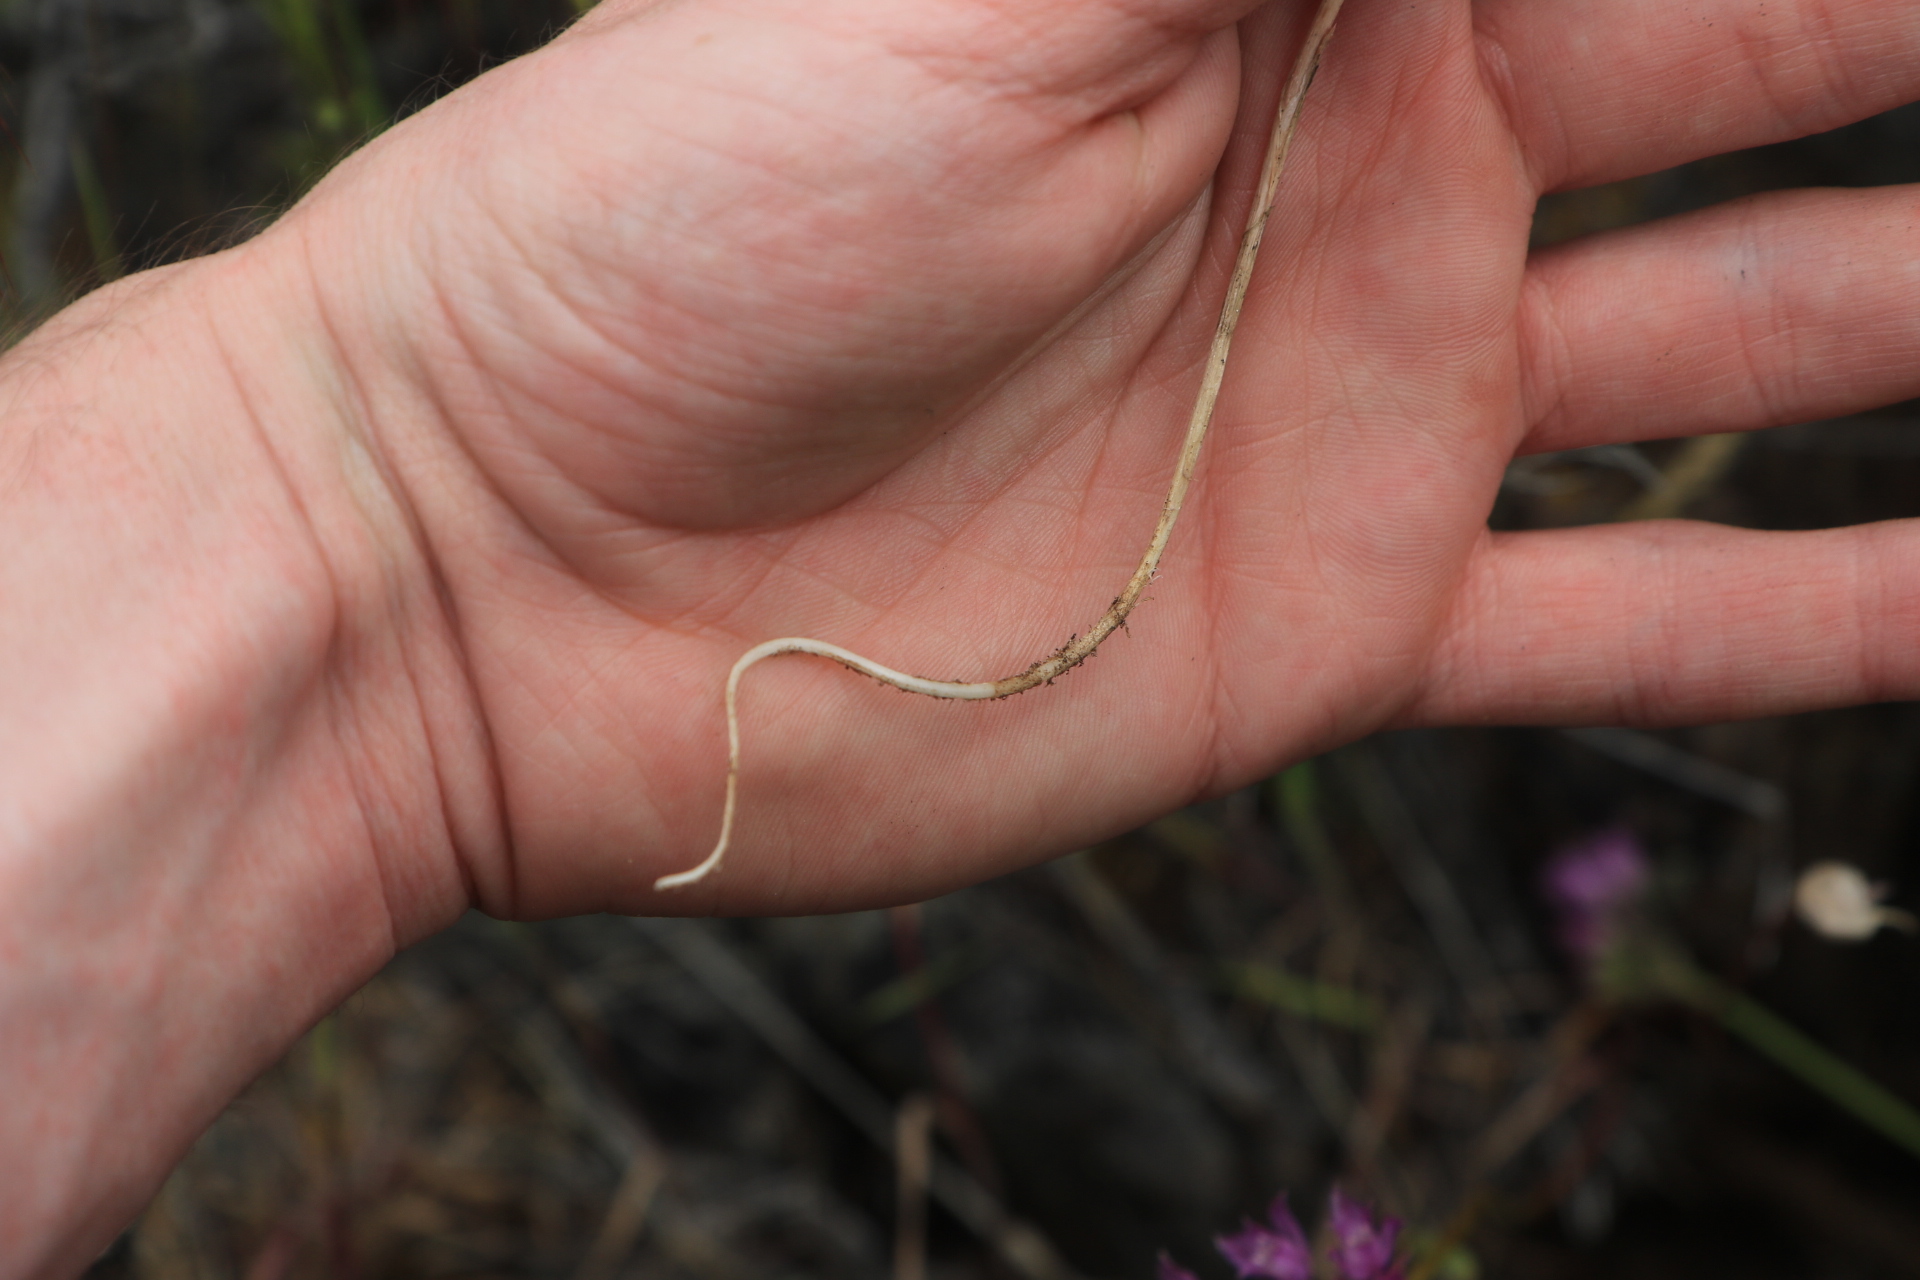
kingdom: Plantae
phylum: Tracheophyta
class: Liliopsida
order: Asparagales
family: Amaryllidaceae
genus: Allium
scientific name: Allium acuminatum
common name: Hooker's onion
